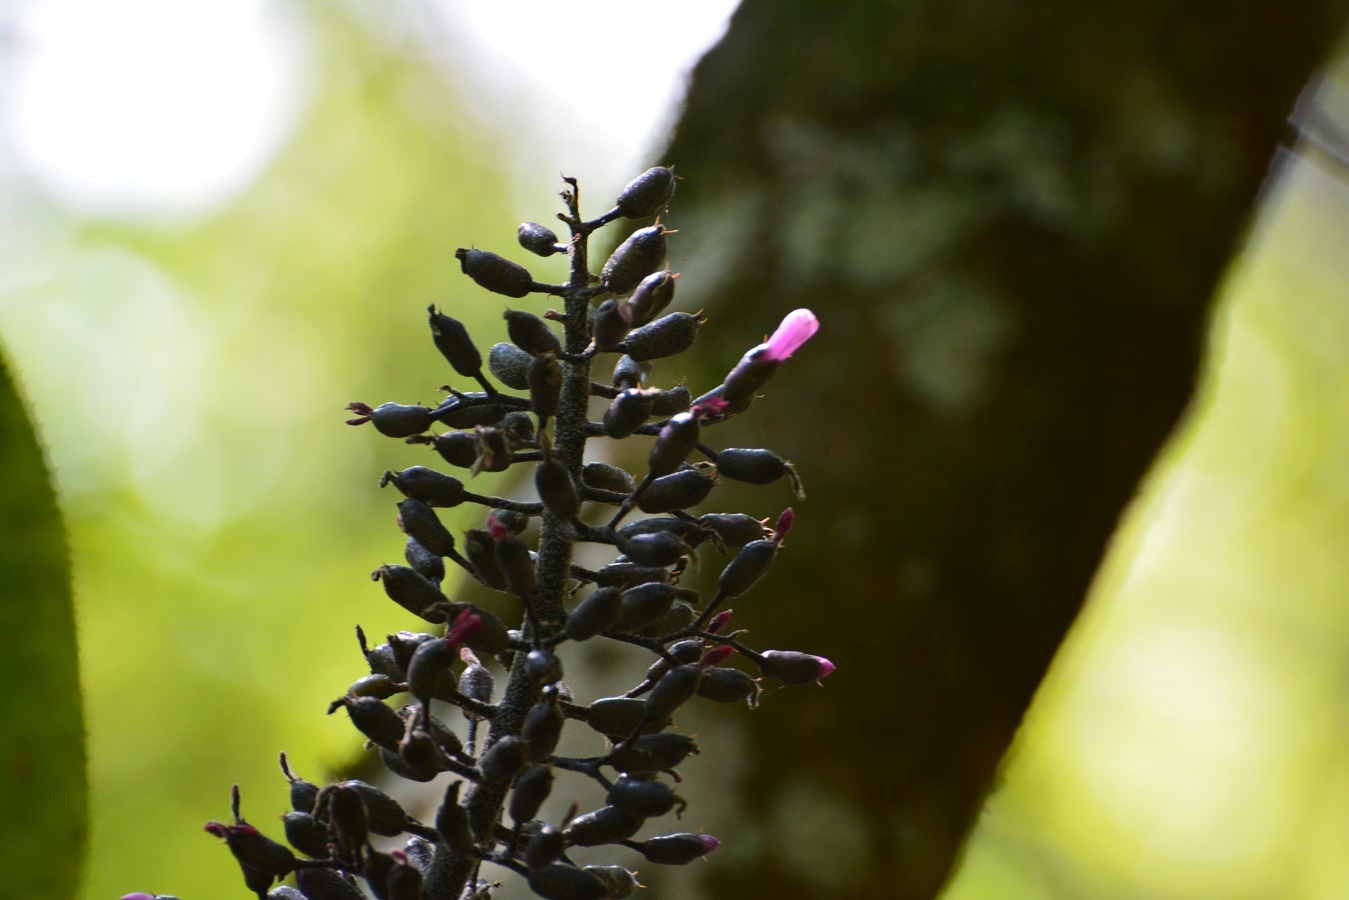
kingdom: Plantae
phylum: Tracheophyta
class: Liliopsida
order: Poales
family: Bromeliaceae
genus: Aechmea
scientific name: Aechmea mexicana
